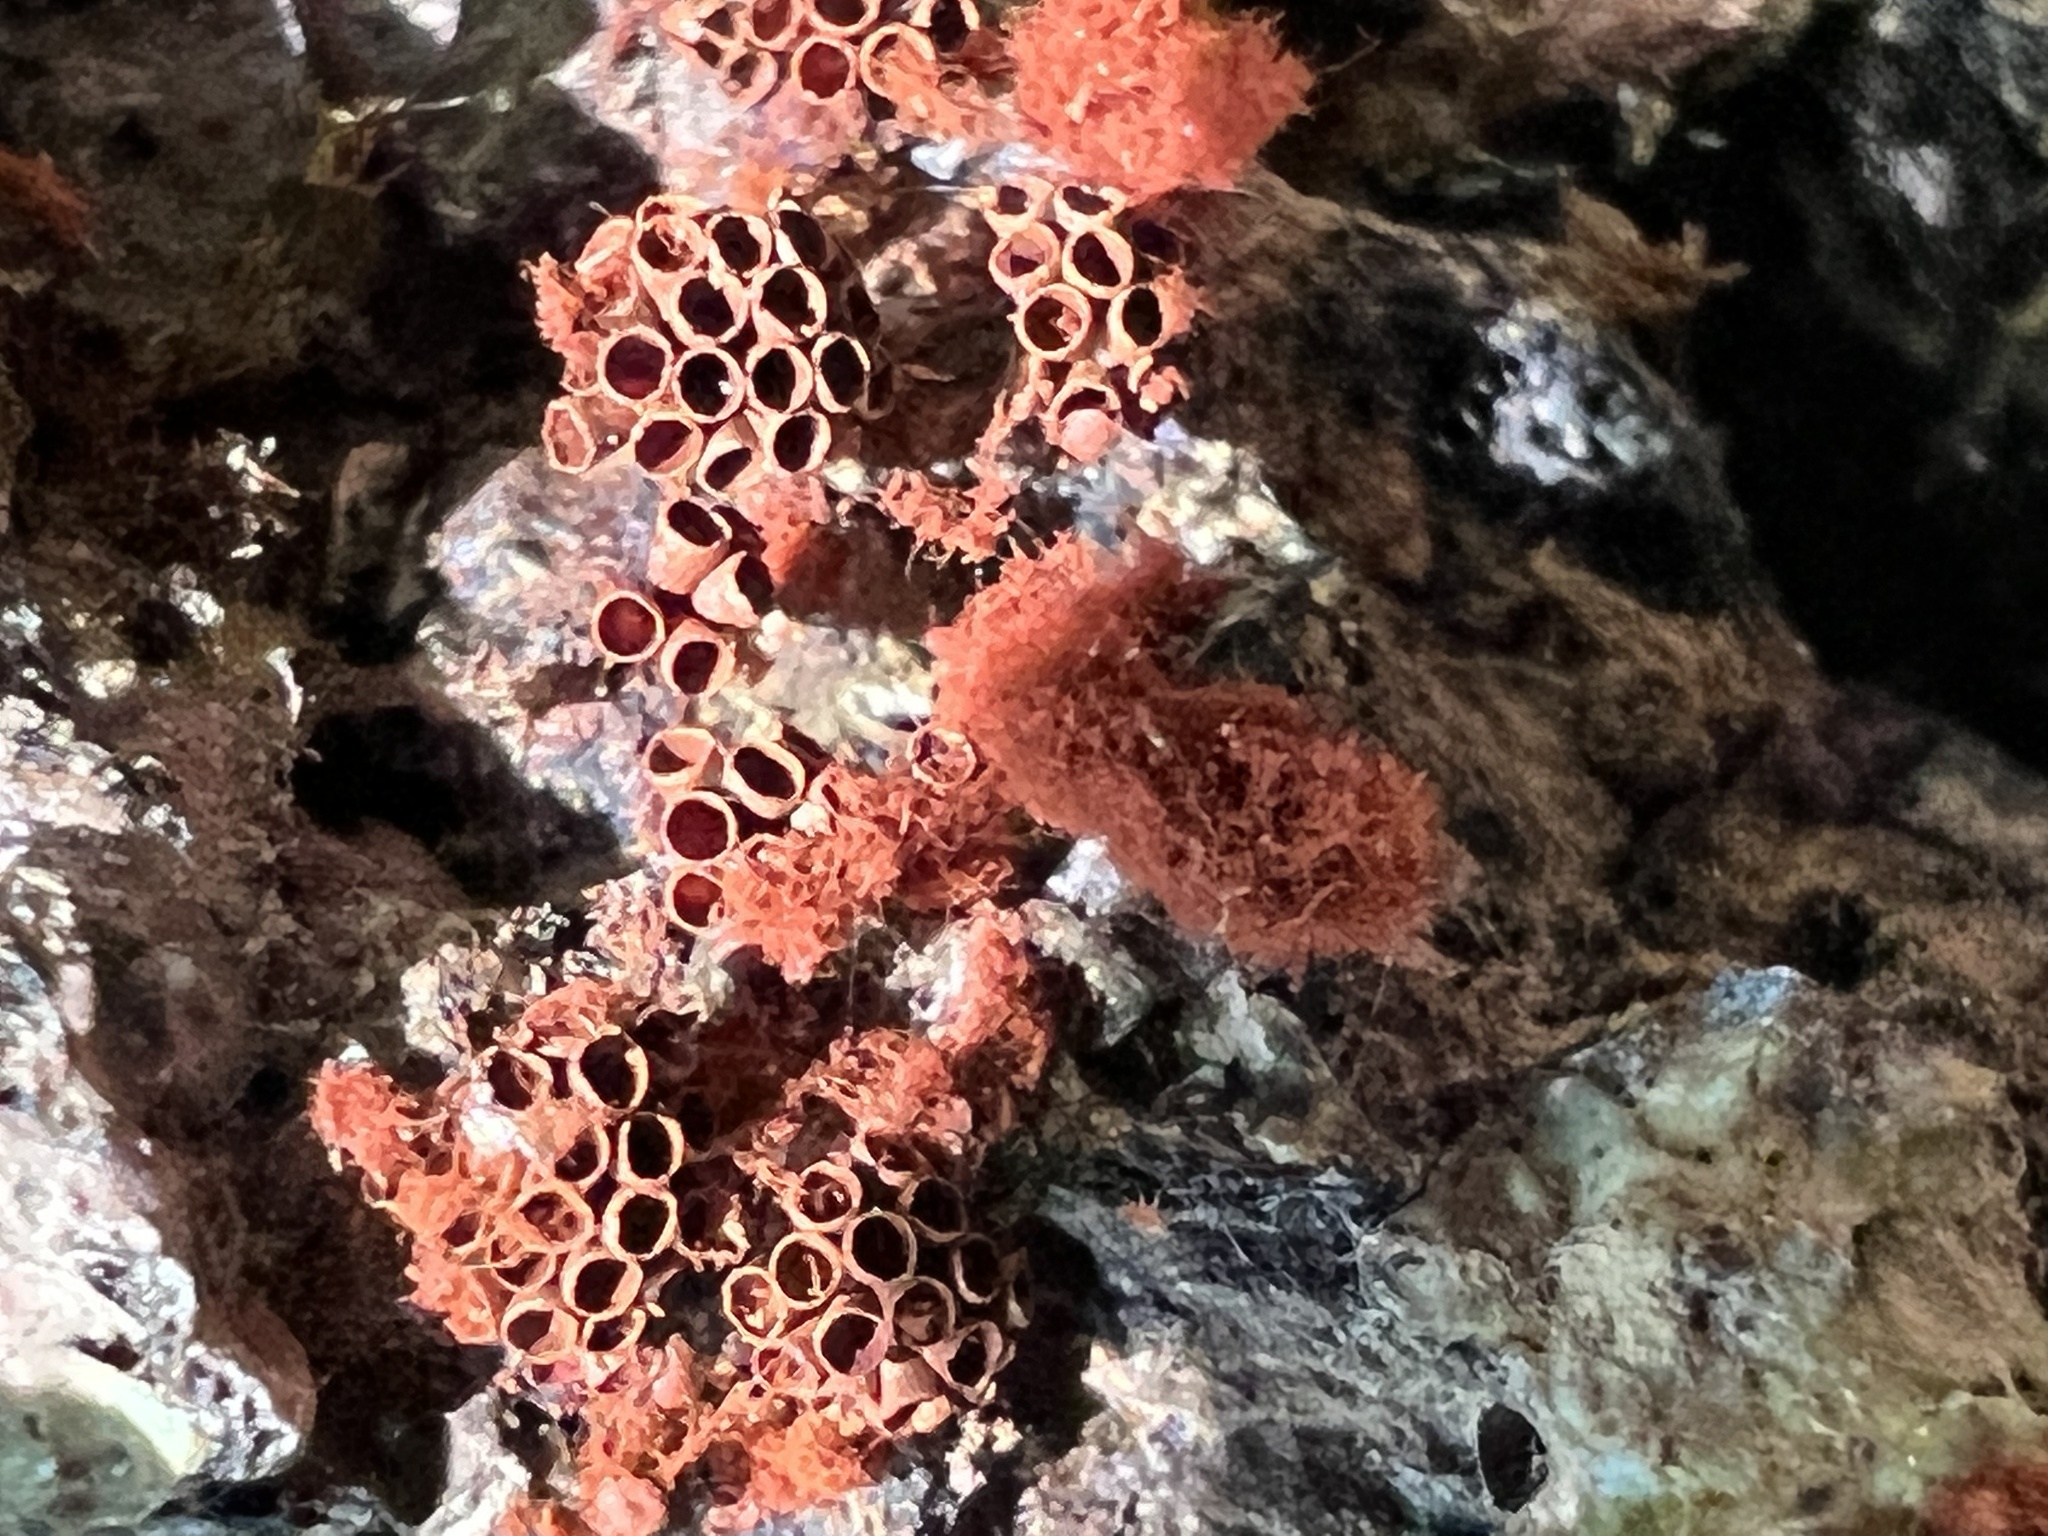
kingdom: Protozoa
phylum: Mycetozoa
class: Myxomycetes
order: Trichiales
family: Trichiaceae
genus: Metatrichia
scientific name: Metatrichia vesparia
